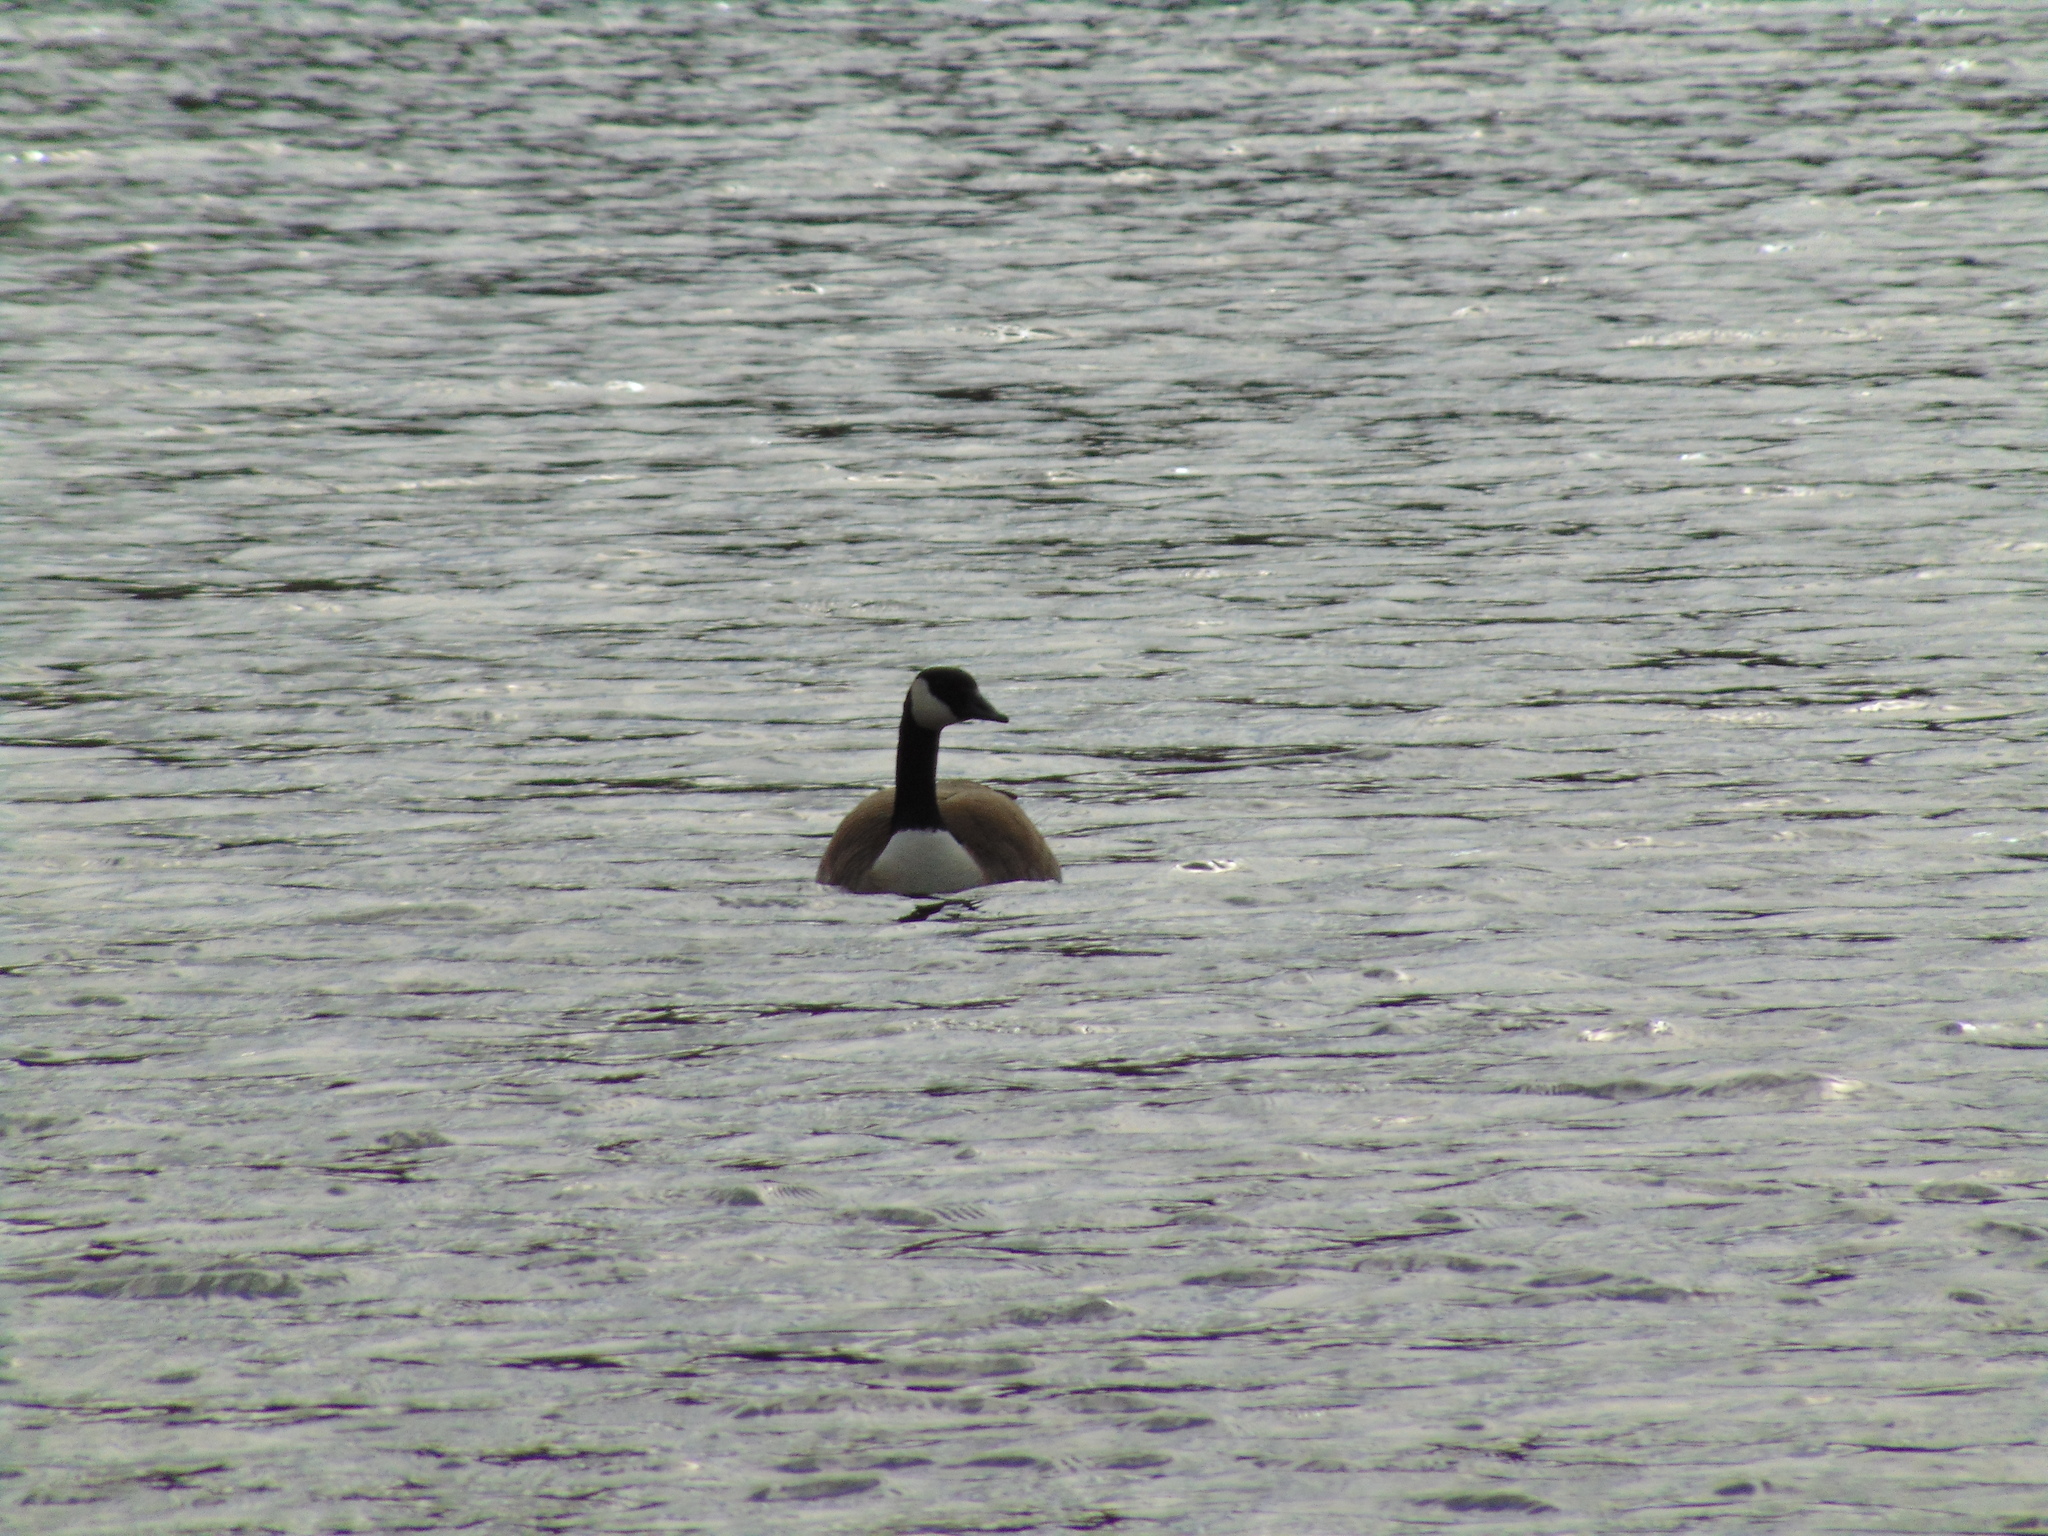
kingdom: Animalia
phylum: Chordata
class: Aves
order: Anseriformes
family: Anatidae
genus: Branta
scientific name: Branta canadensis
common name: Canada goose
